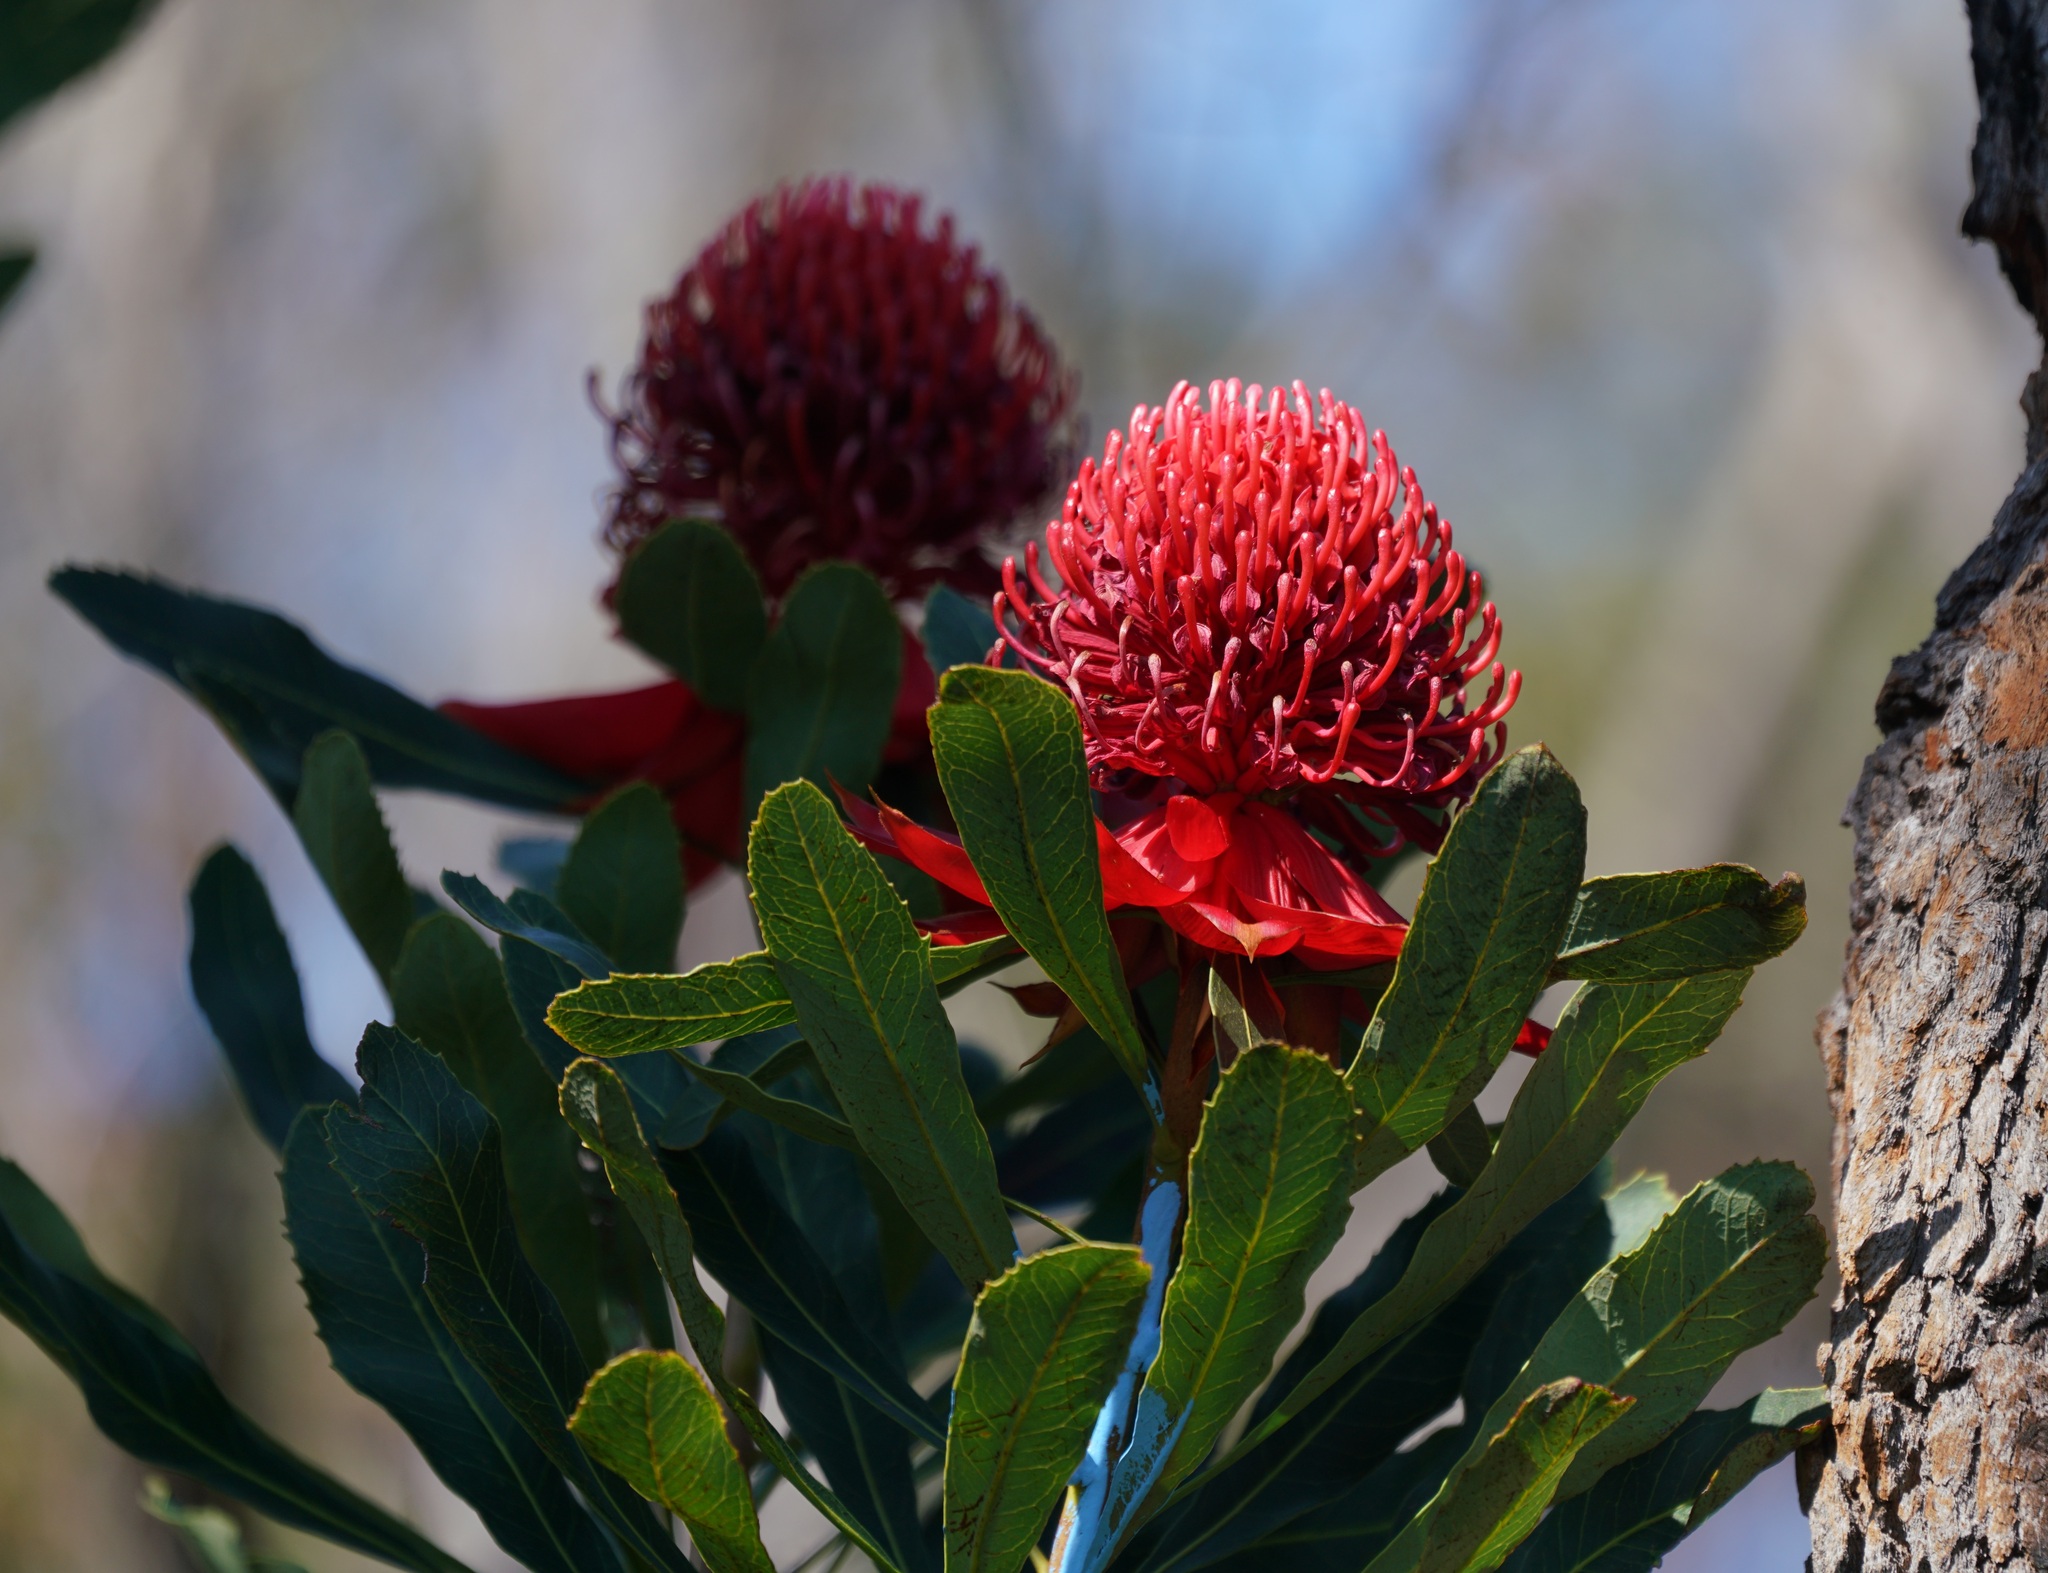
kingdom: Plantae
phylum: Tracheophyta
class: Magnoliopsida
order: Proteales
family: Proteaceae
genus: Telopea
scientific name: Telopea speciosissima
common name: New south wales waratah
